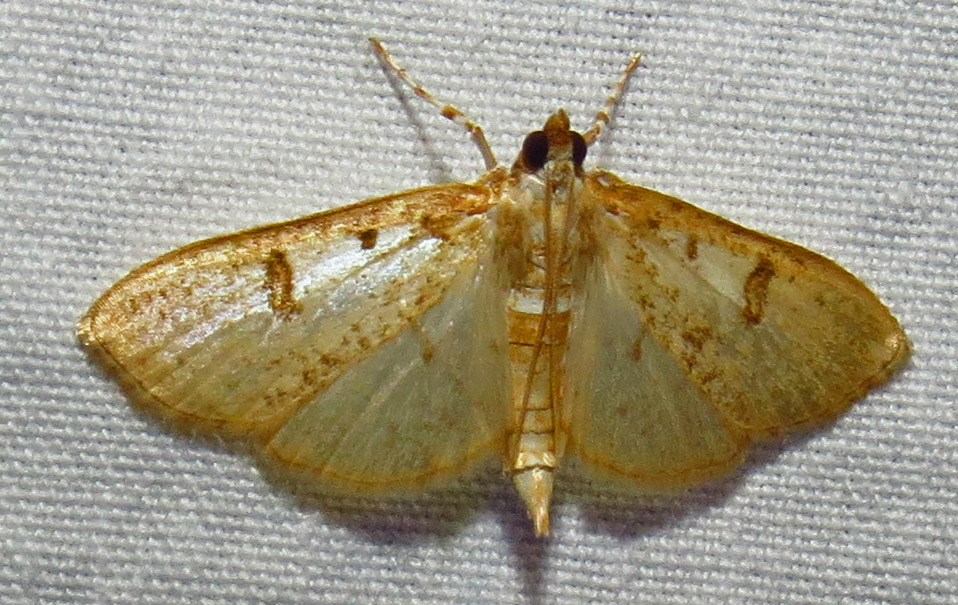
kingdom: Animalia
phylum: Arthropoda
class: Insecta
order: Lepidoptera
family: Crambidae
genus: Palpita
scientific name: Palpita freemanalis
